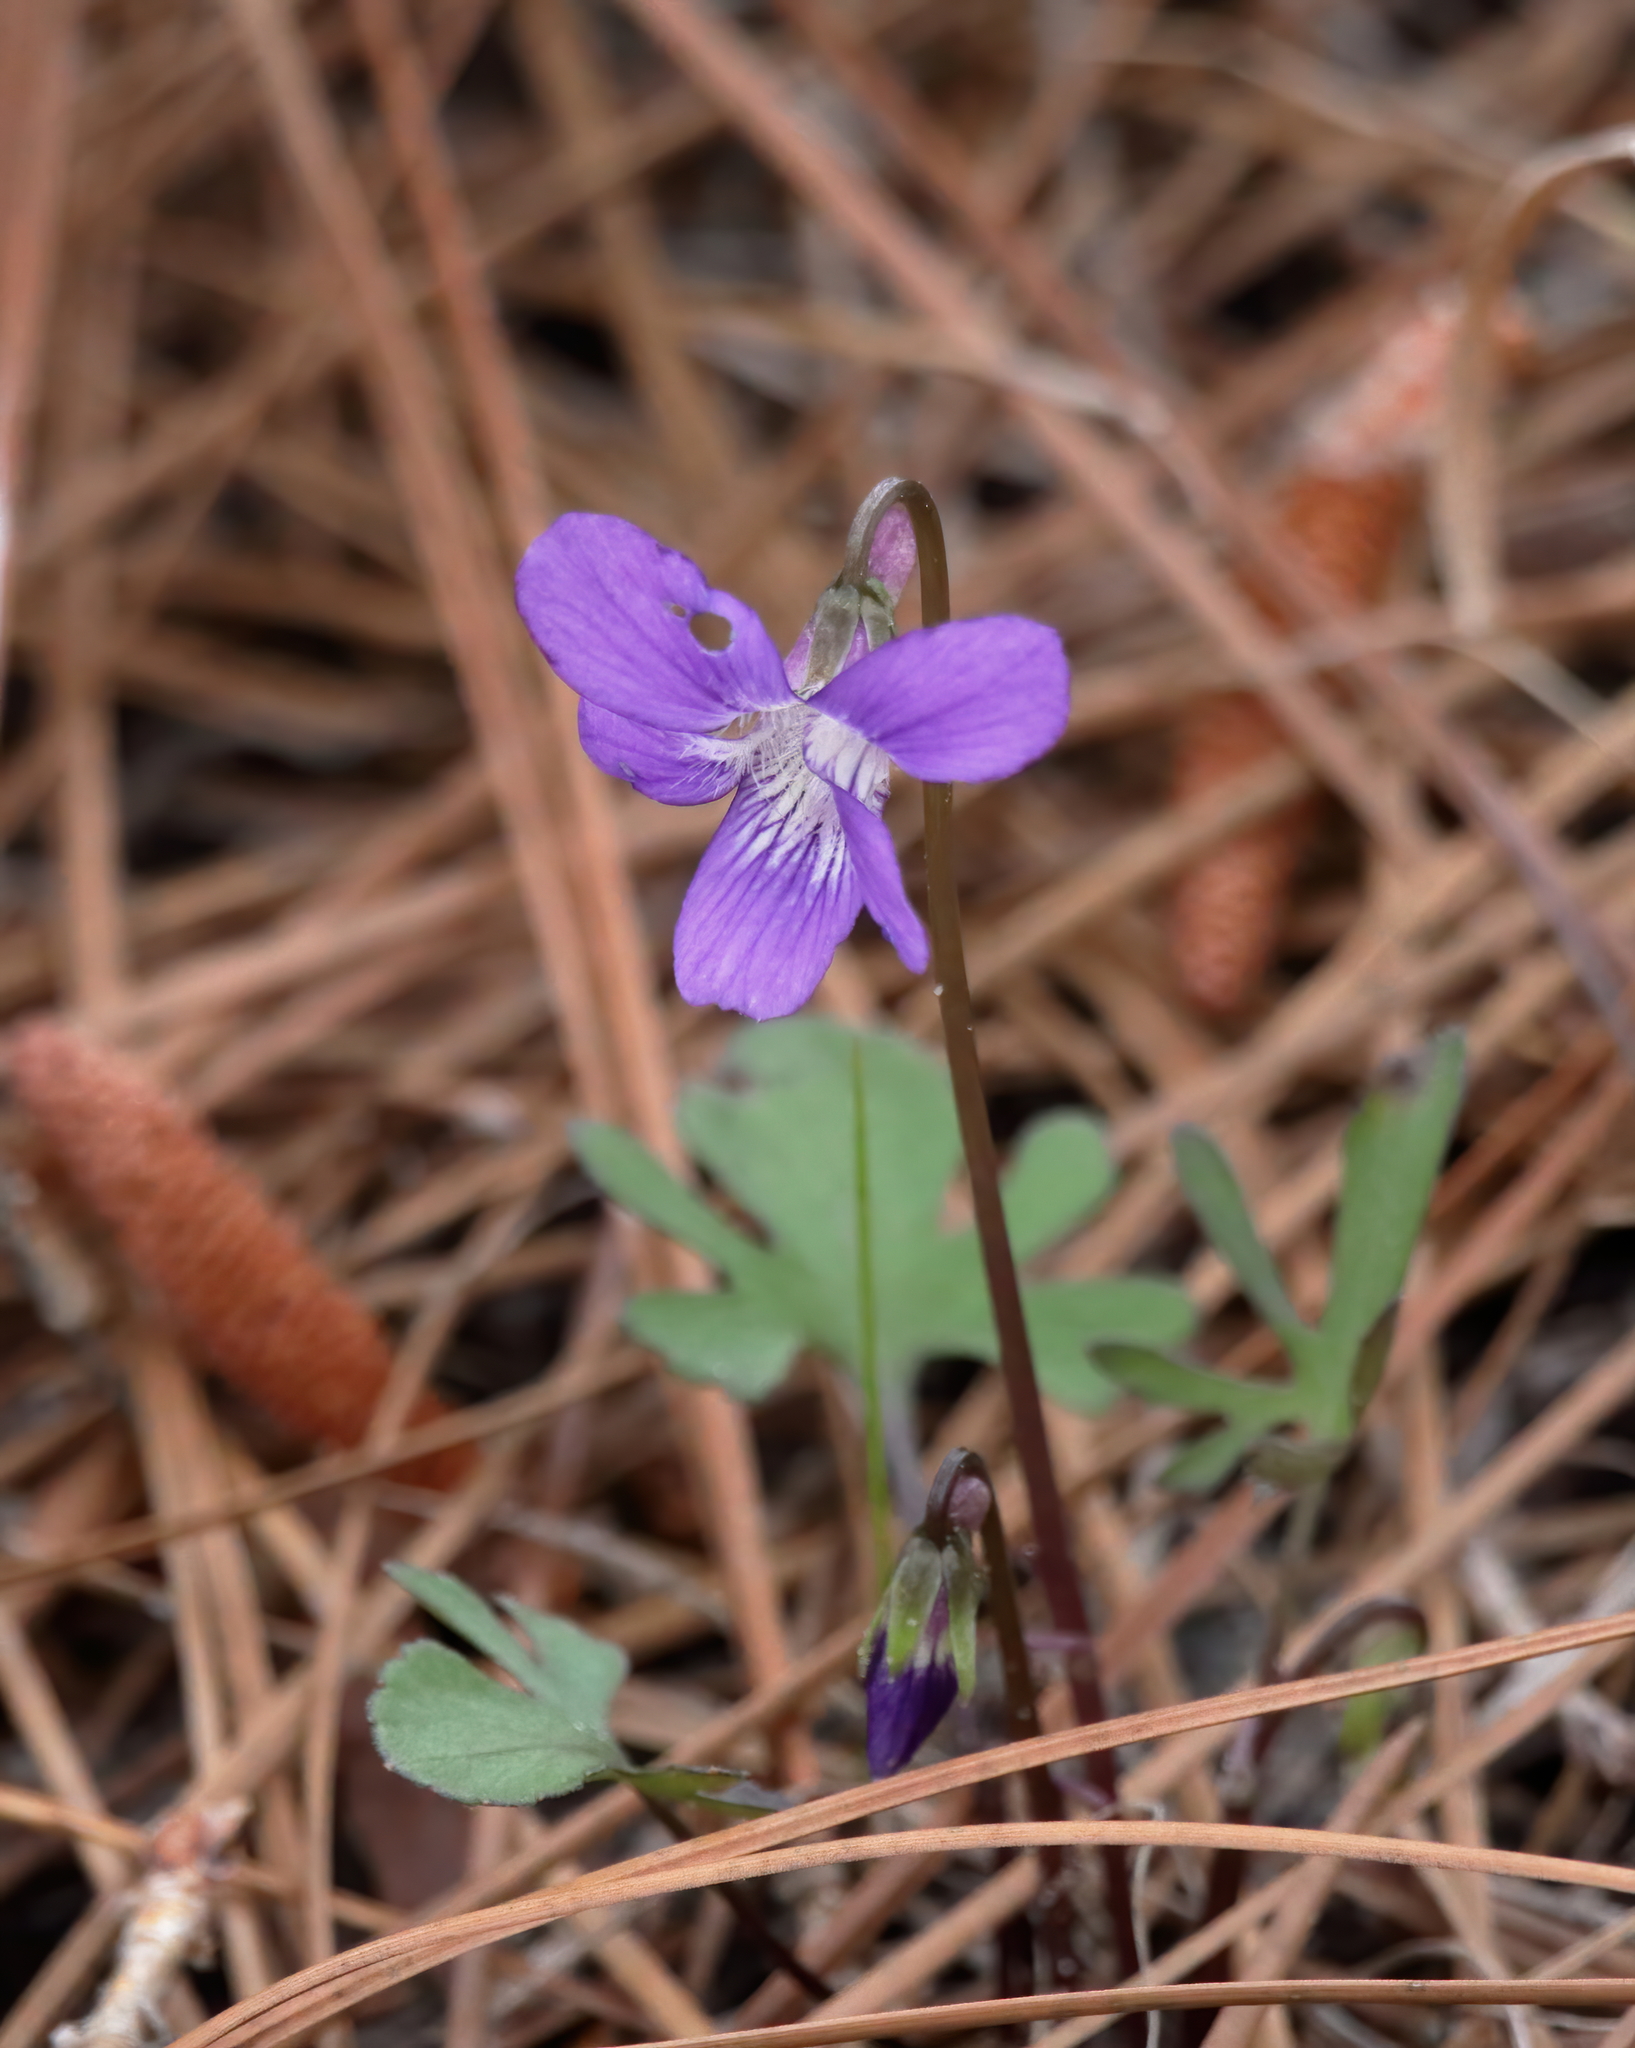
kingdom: Plantae
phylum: Tracheophyta
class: Magnoliopsida
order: Malpighiales
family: Violaceae
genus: Viola
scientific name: Viola septemloba
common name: Southern coast violet
